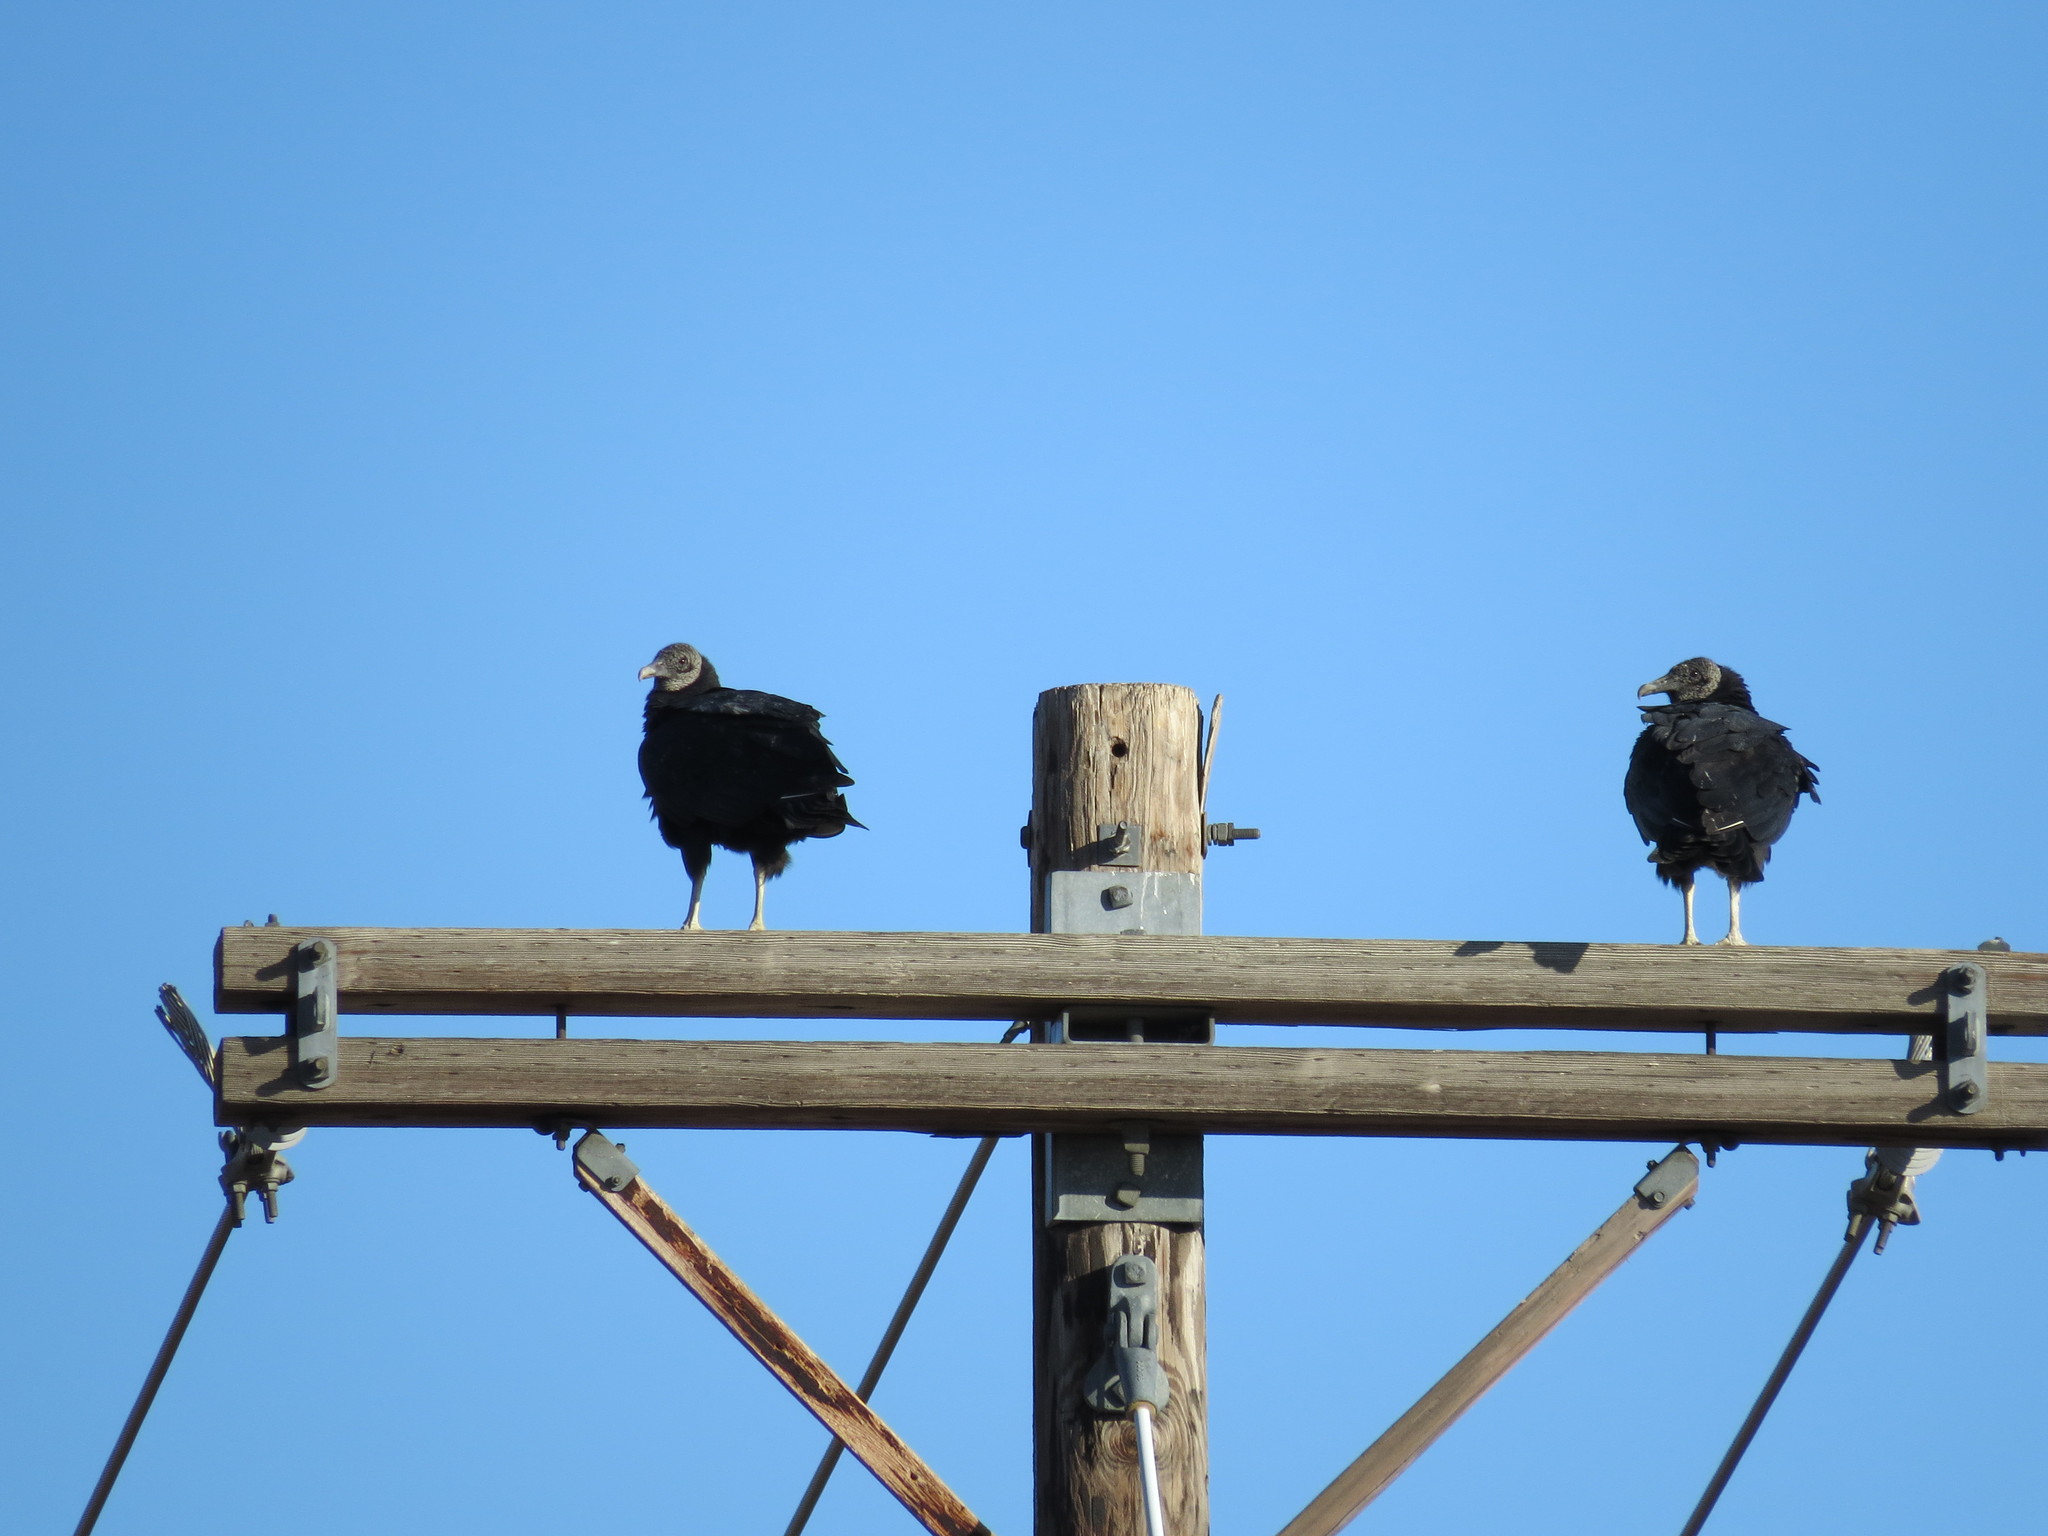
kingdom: Animalia
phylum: Chordata
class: Aves
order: Accipitriformes
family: Cathartidae
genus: Coragyps
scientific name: Coragyps atratus
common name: Black vulture
